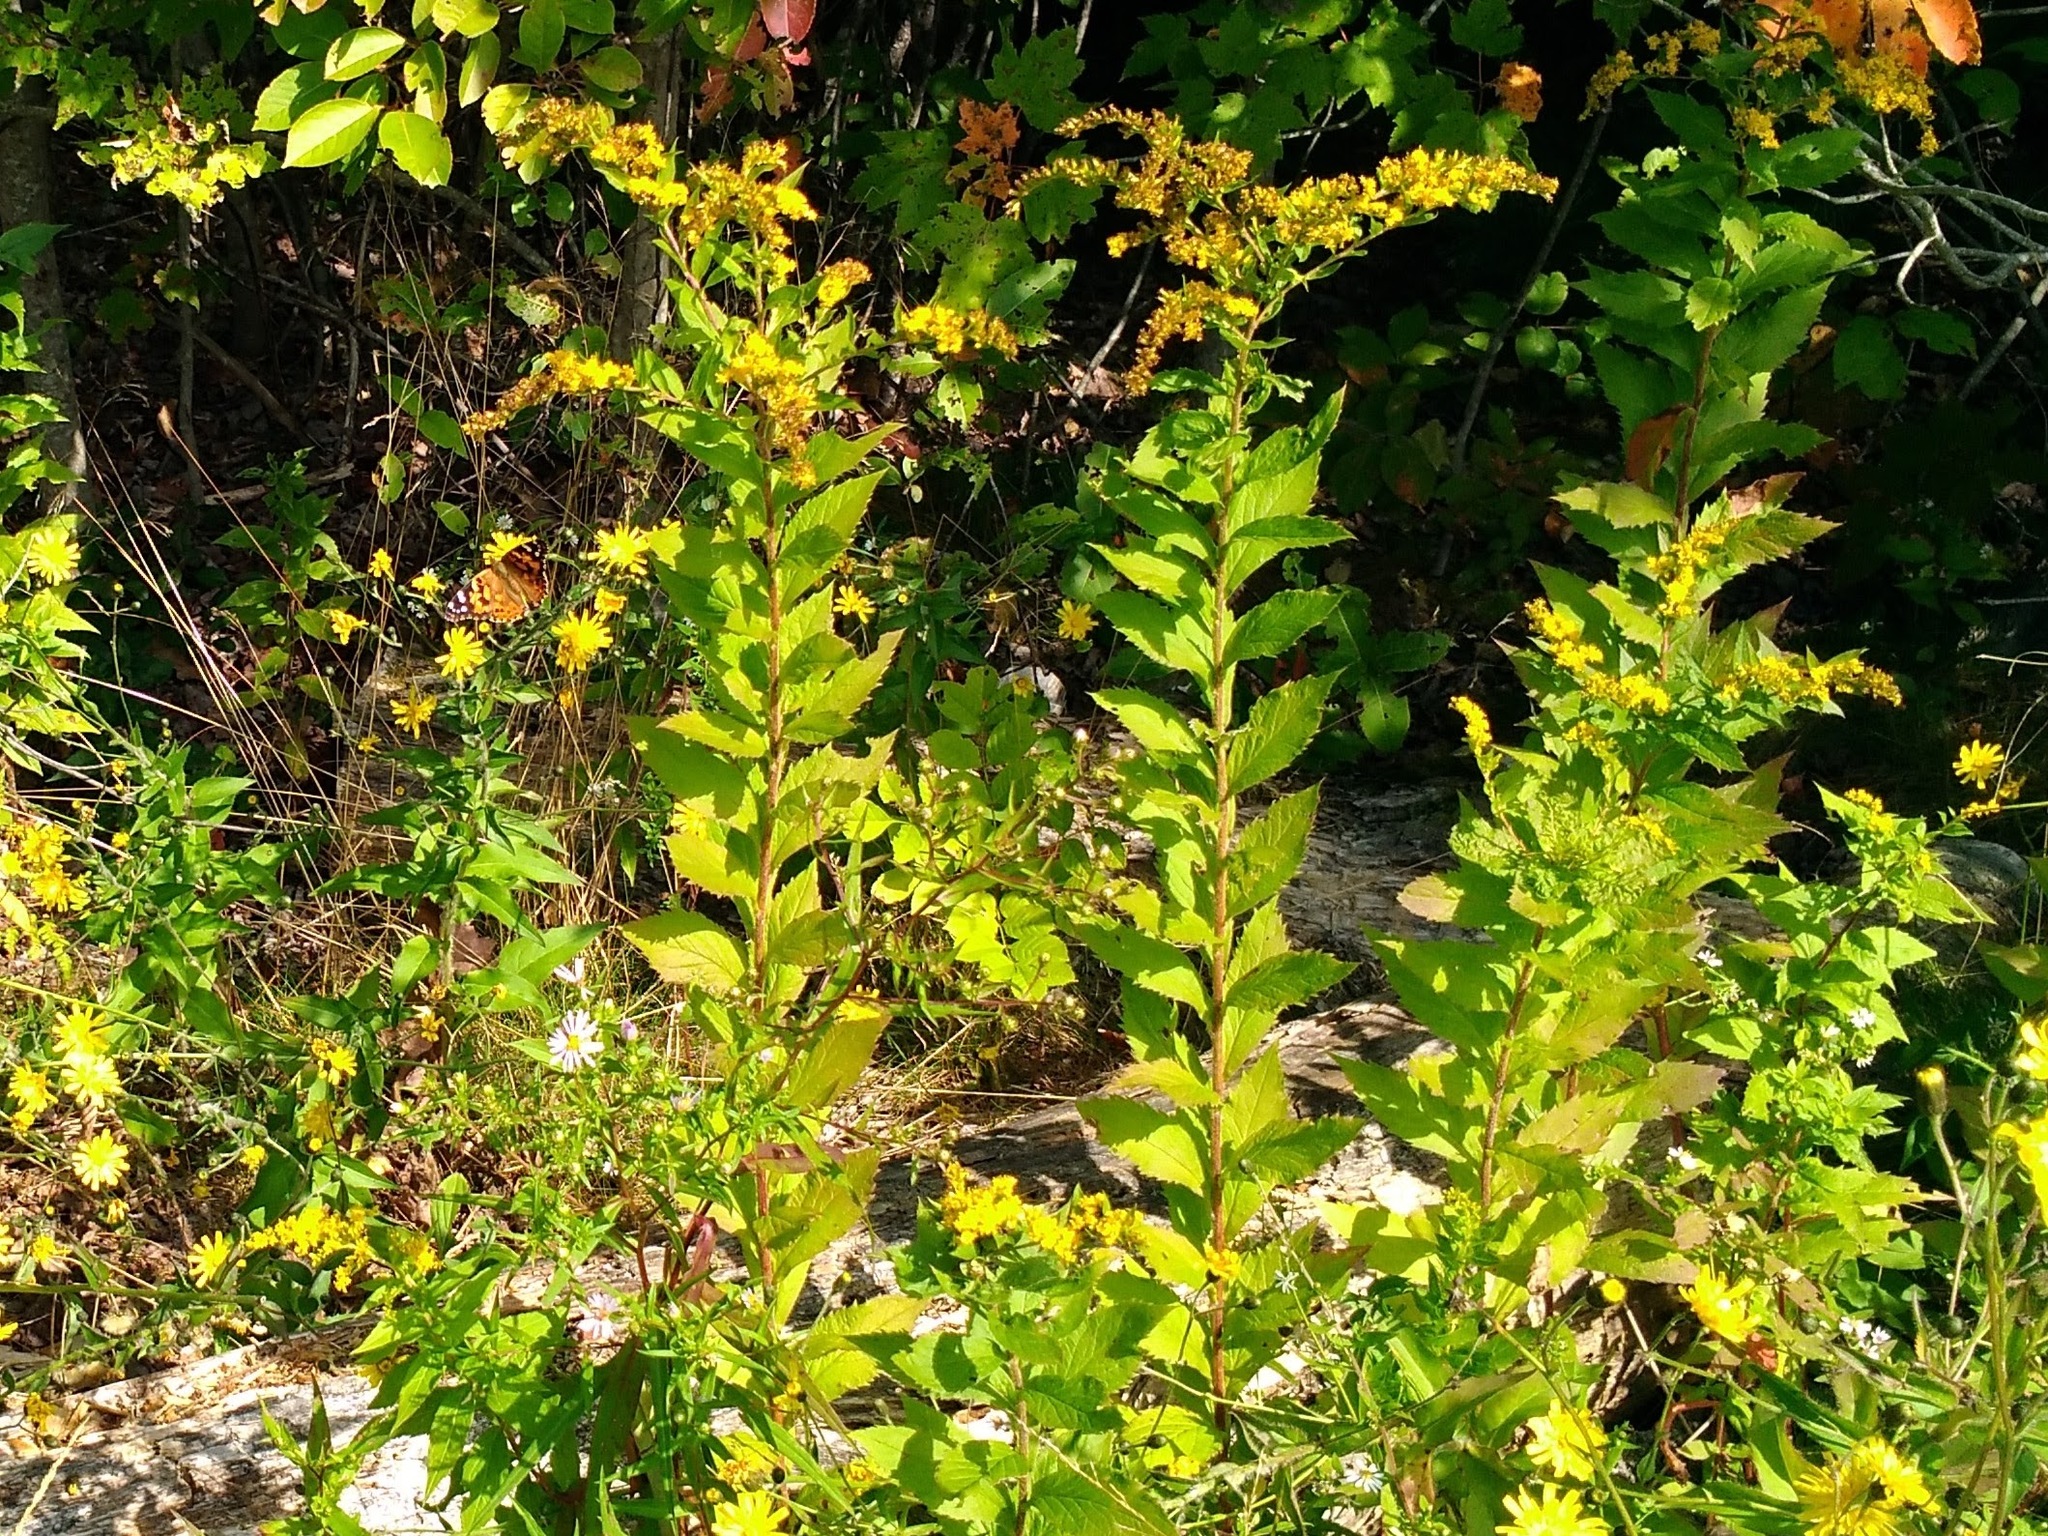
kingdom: Plantae
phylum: Tracheophyta
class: Magnoliopsida
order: Asterales
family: Asteraceae
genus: Solidago
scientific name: Solidago rugosa
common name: Rough-stemmed goldenrod
